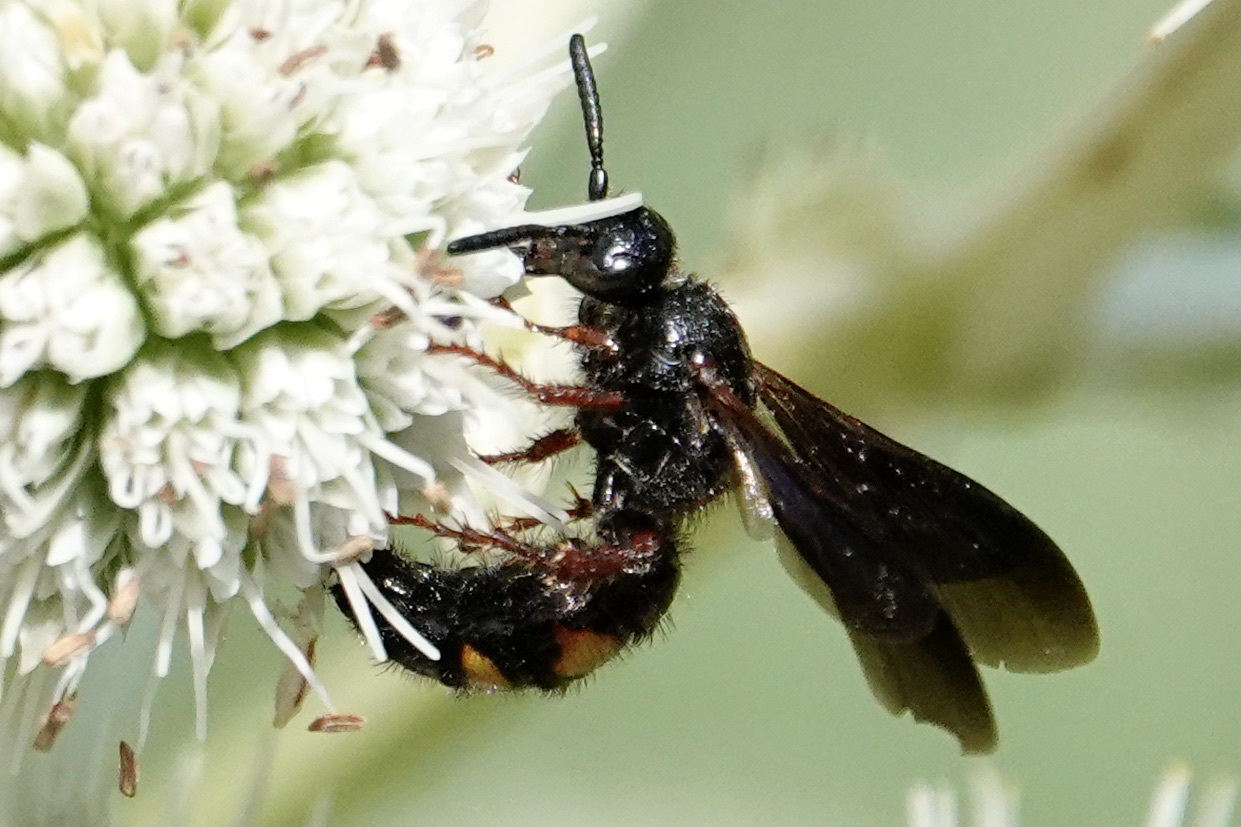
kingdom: Animalia
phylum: Arthropoda
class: Insecta
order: Hymenoptera
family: Scoliidae
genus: Scolia
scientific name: Scolia nobilitata
